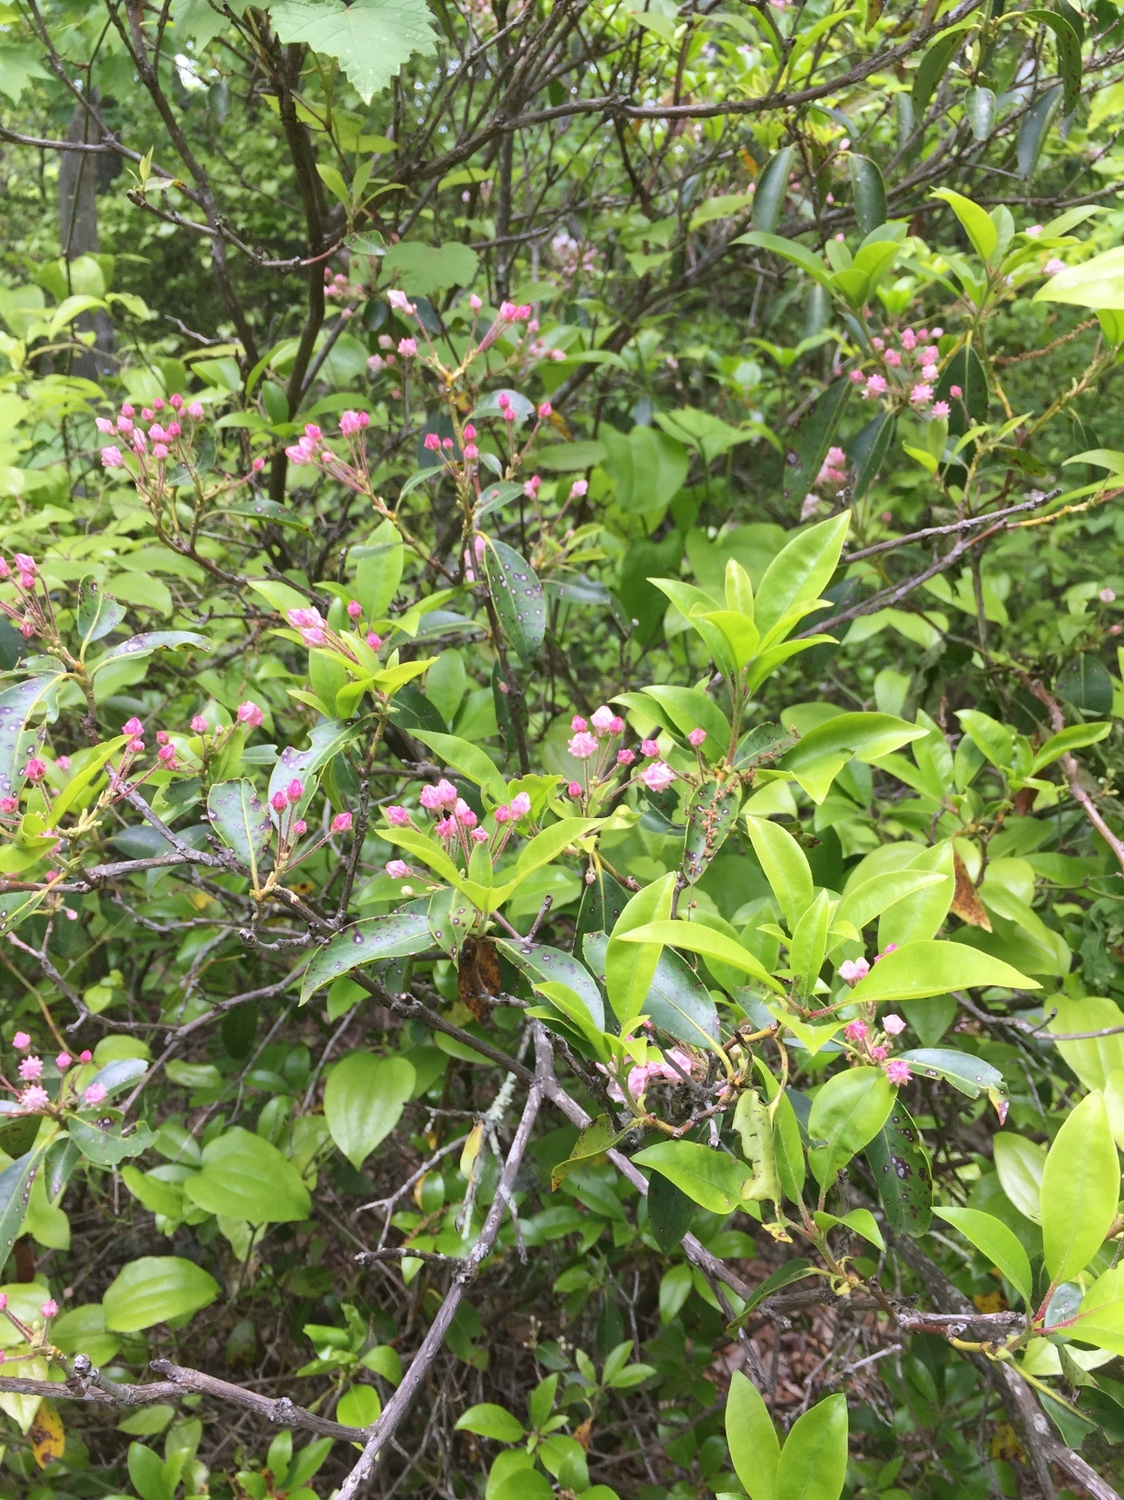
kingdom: Plantae
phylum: Tracheophyta
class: Magnoliopsida
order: Ericales
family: Ericaceae
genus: Kalmia
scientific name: Kalmia latifolia
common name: Mountain-laurel
